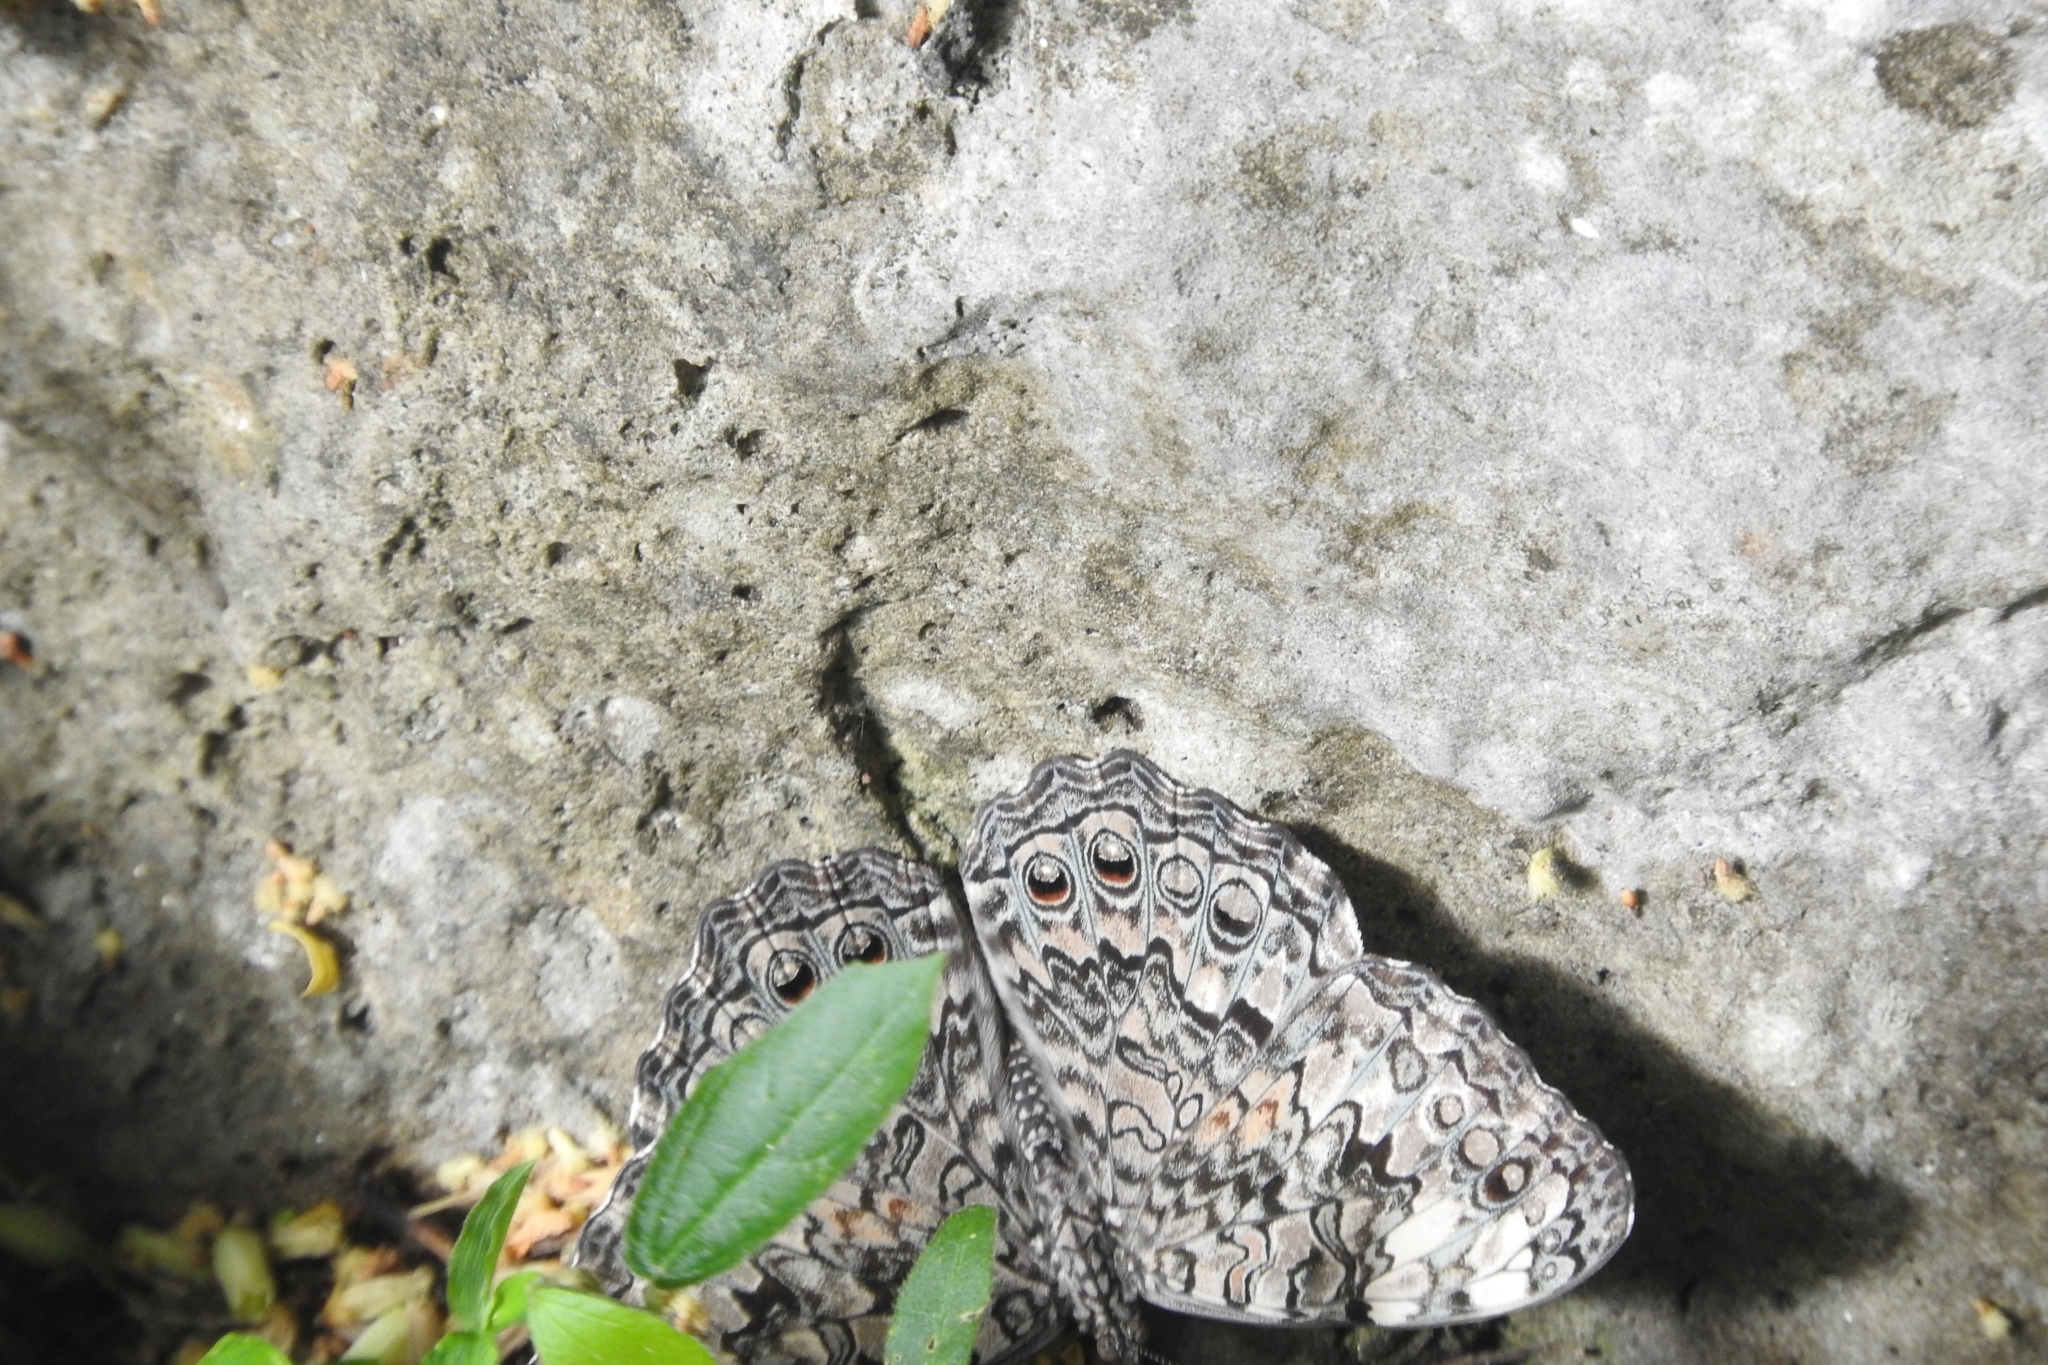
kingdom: Animalia
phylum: Arthropoda
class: Insecta
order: Lepidoptera
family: Nymphalidae
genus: Hamadryas
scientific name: Hamadryas februa
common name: Gray cracker
